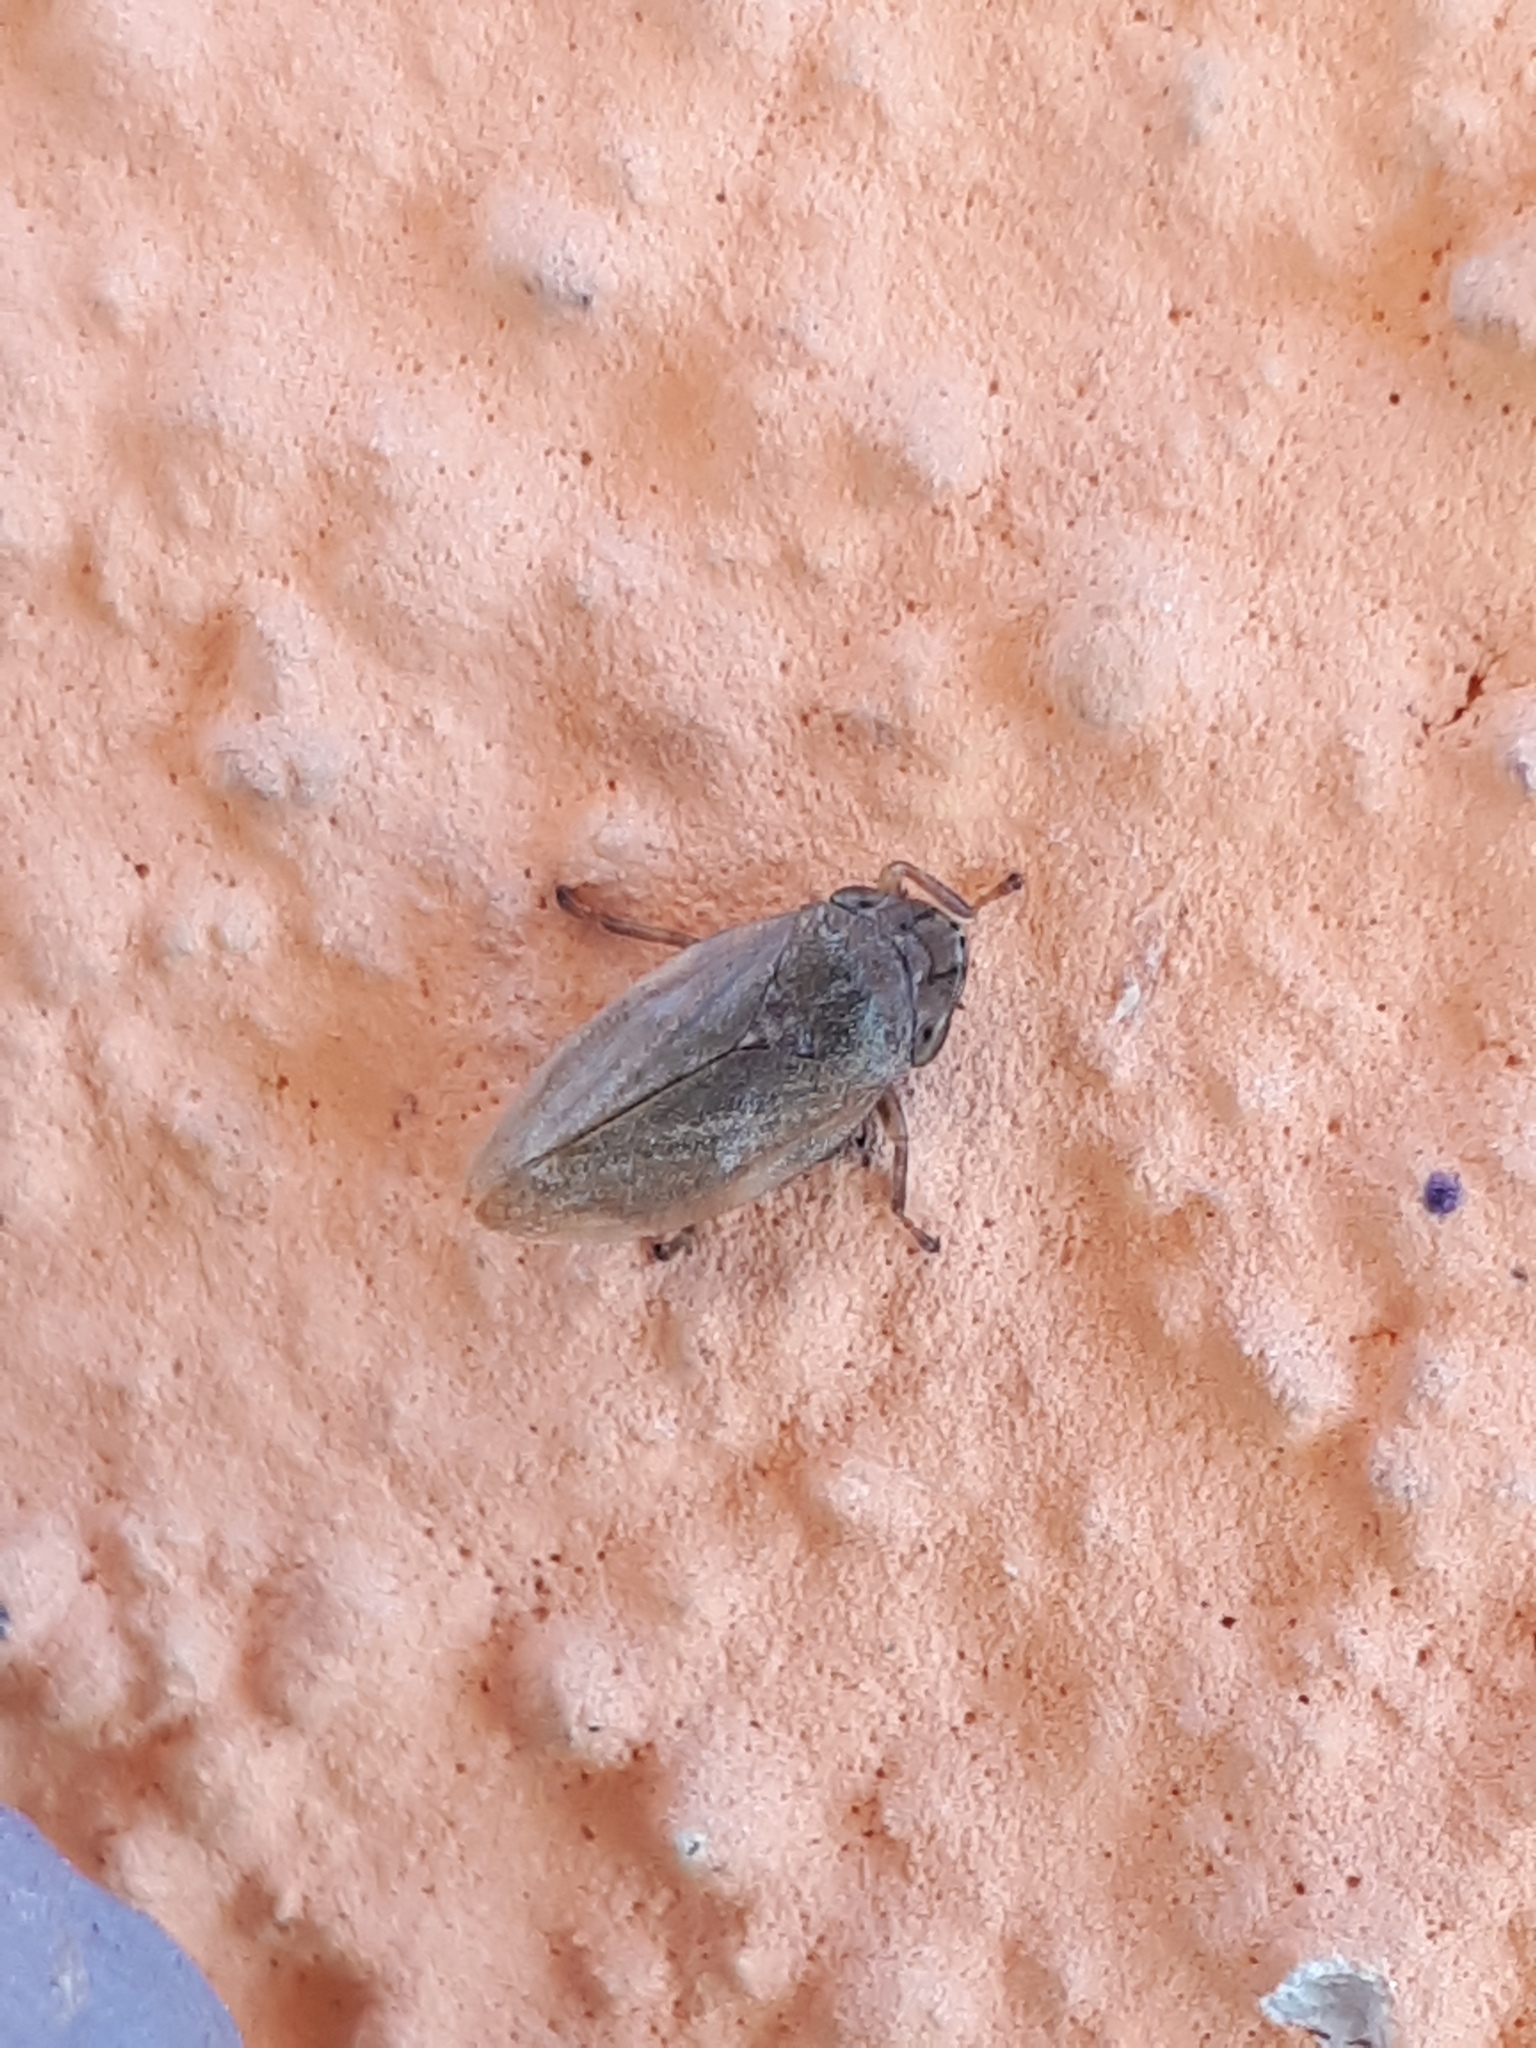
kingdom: Animalia
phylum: Arthropoda
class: Insecta
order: Hemiptera
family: Aphrophoridae
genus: Philaenus
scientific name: Philaenus spumarius
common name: Meadow spittlebug
